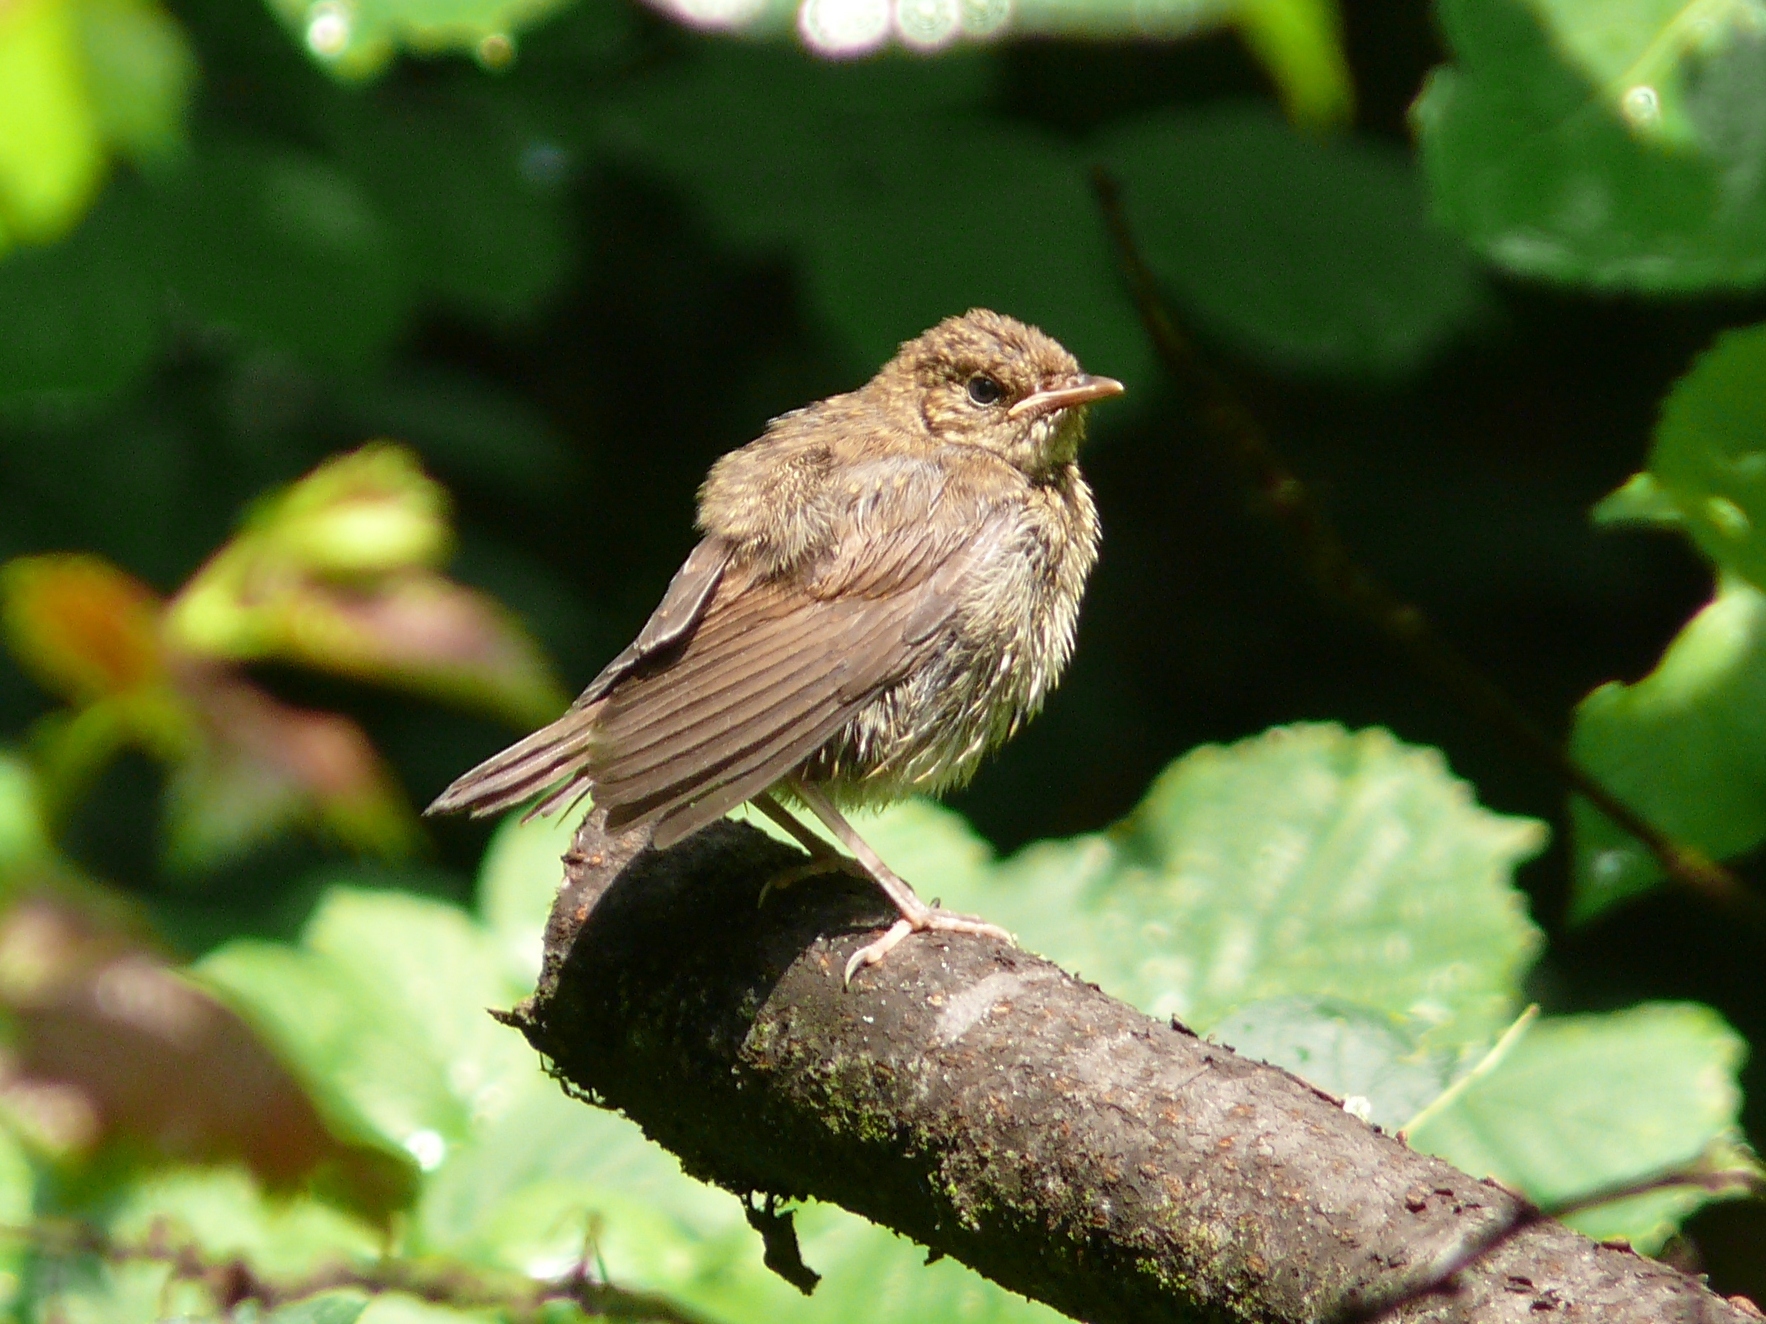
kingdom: Animalia
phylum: Chordata
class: Aves
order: Passeriformes
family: Muscicapidae
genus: Luscinia
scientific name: Luscinia luscinia
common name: Thrush nightingale
